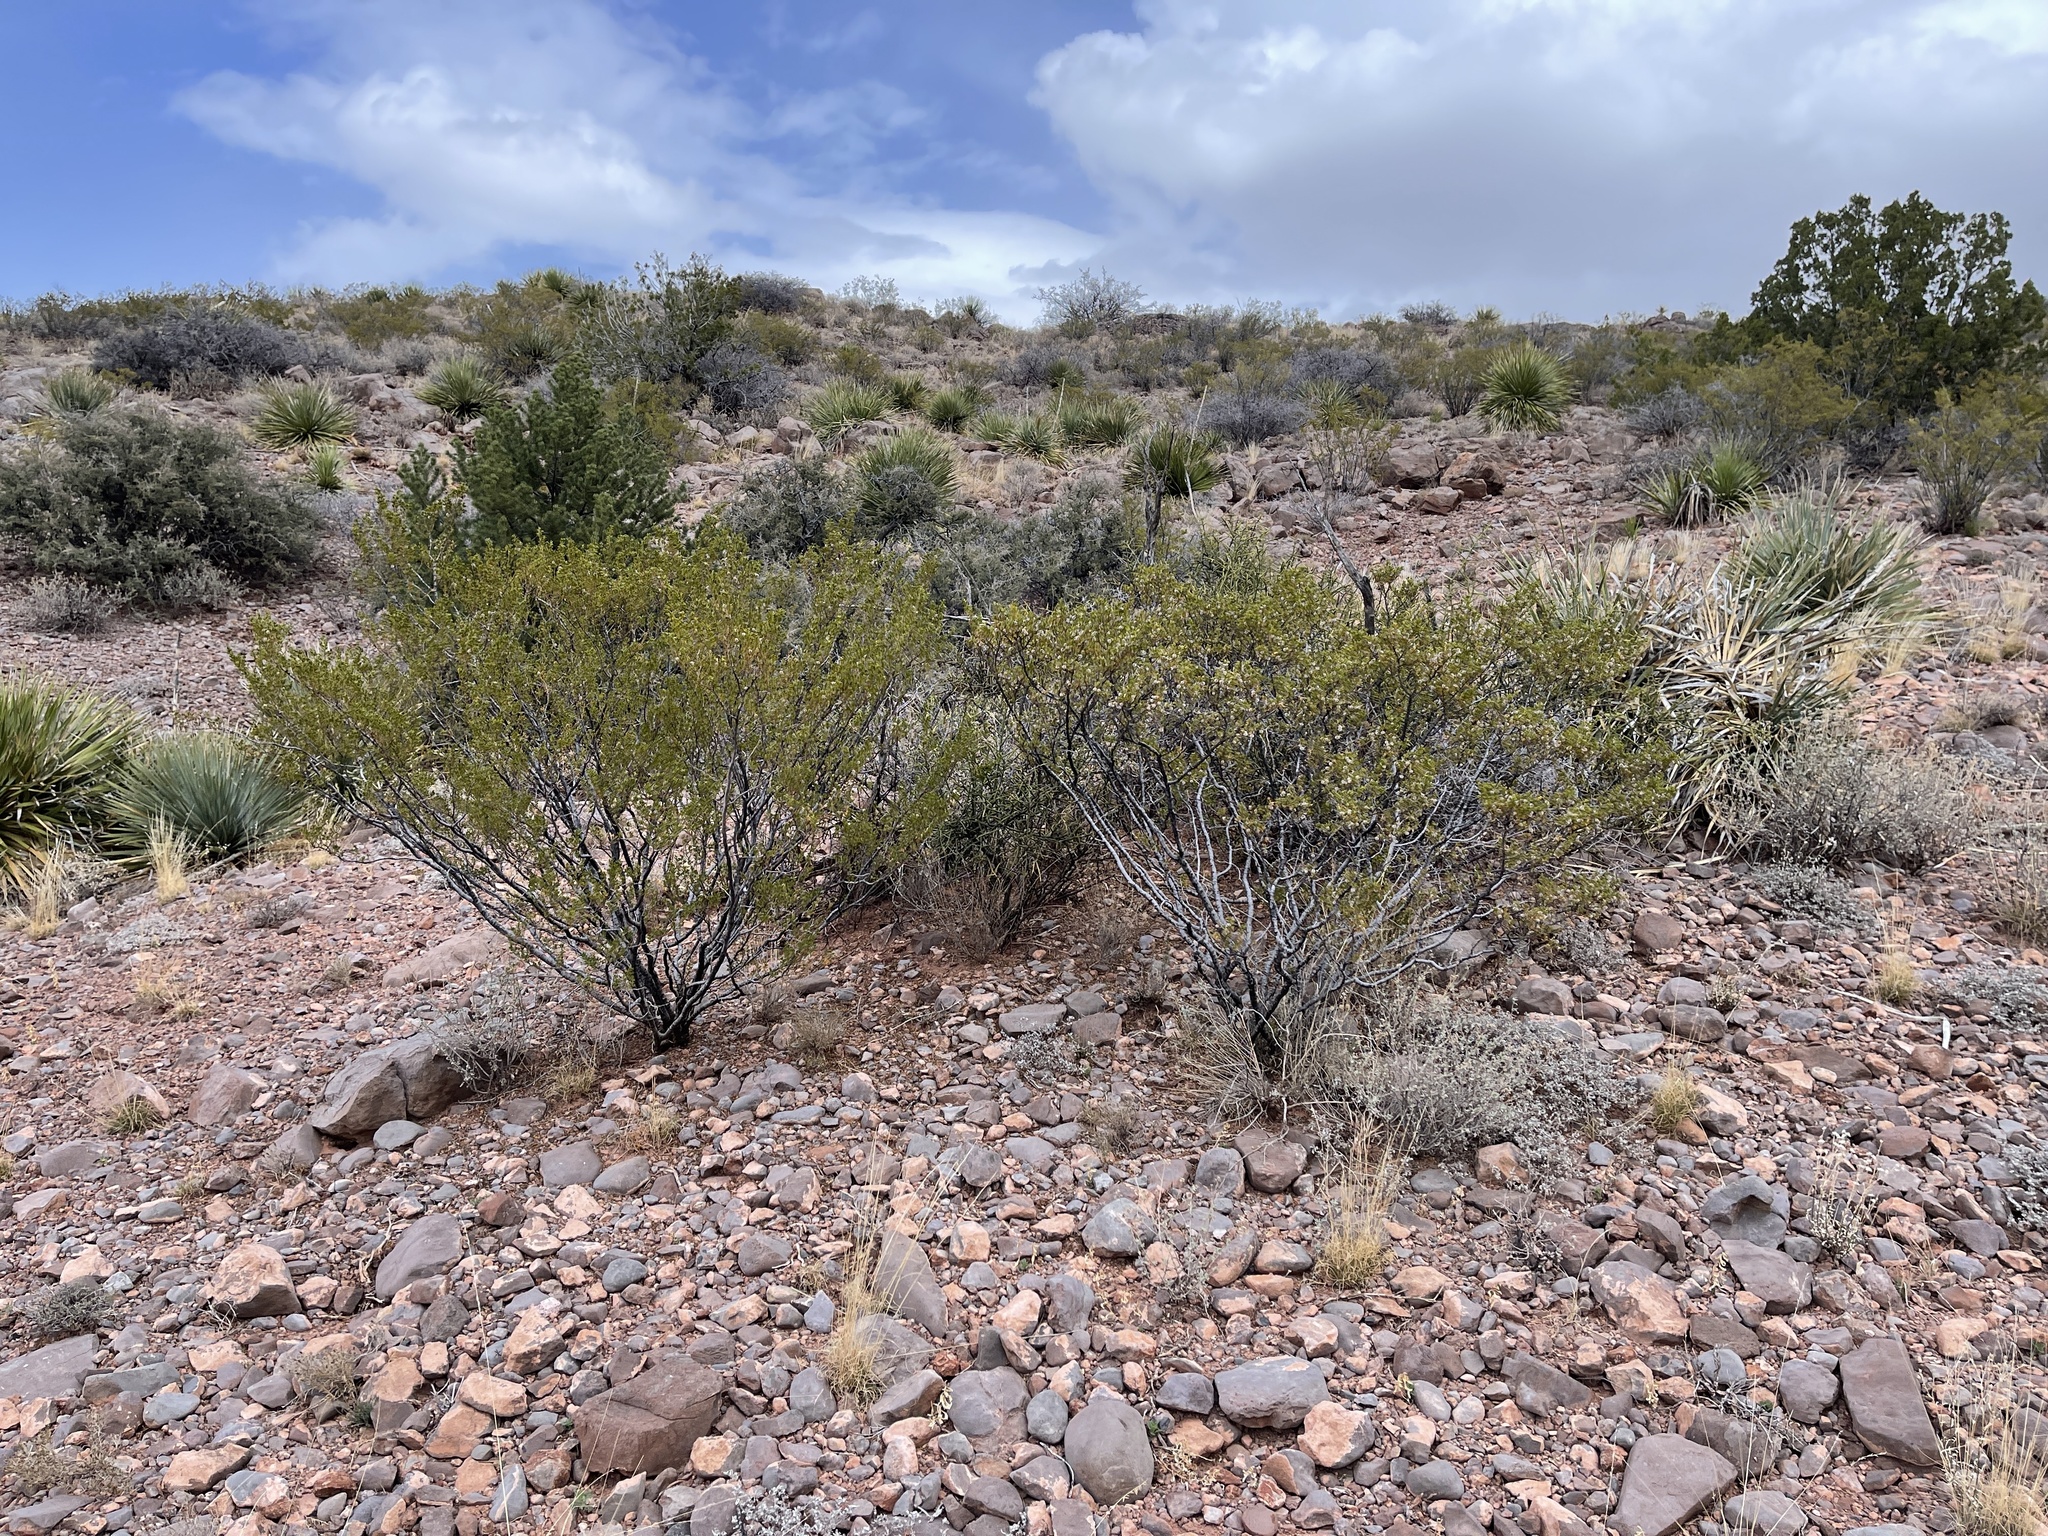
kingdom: Plantae
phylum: Tracheophyta
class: Magnoliopsida
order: Zygophyllales
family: Zygophyllaceae
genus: Larrea
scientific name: Larrea tridentata
